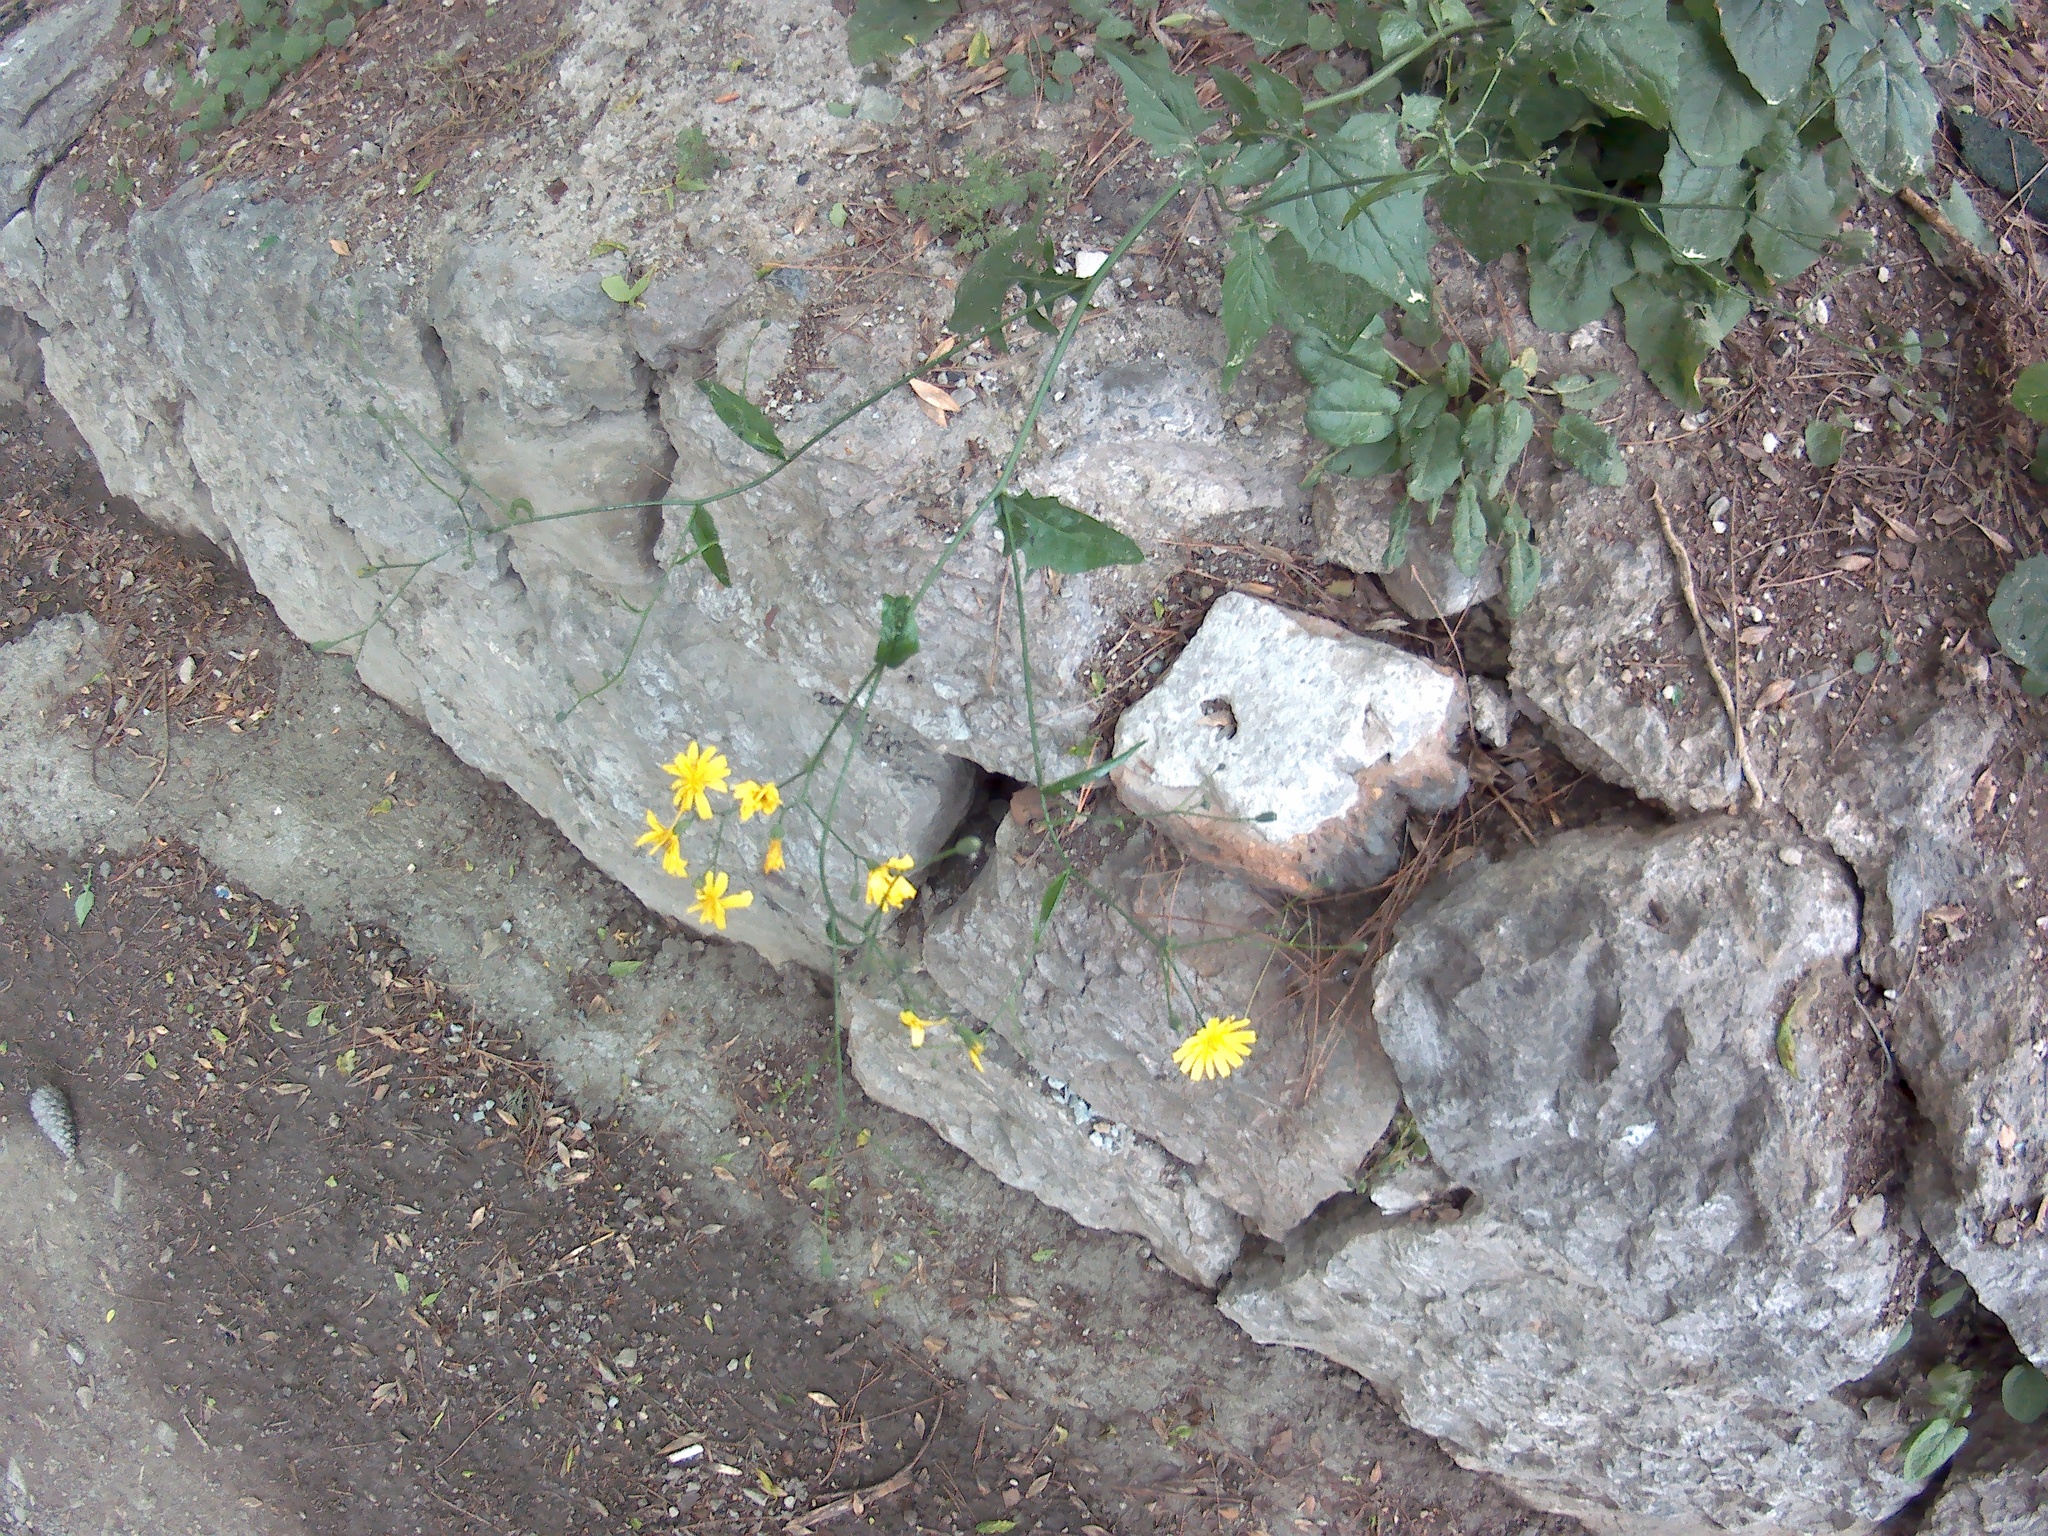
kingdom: Plantae
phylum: Tracheophyta
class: Magnoliopsida
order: Asterales
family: Asteraceae
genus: Rhagadiolus
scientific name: Rhagadiolus edulis
